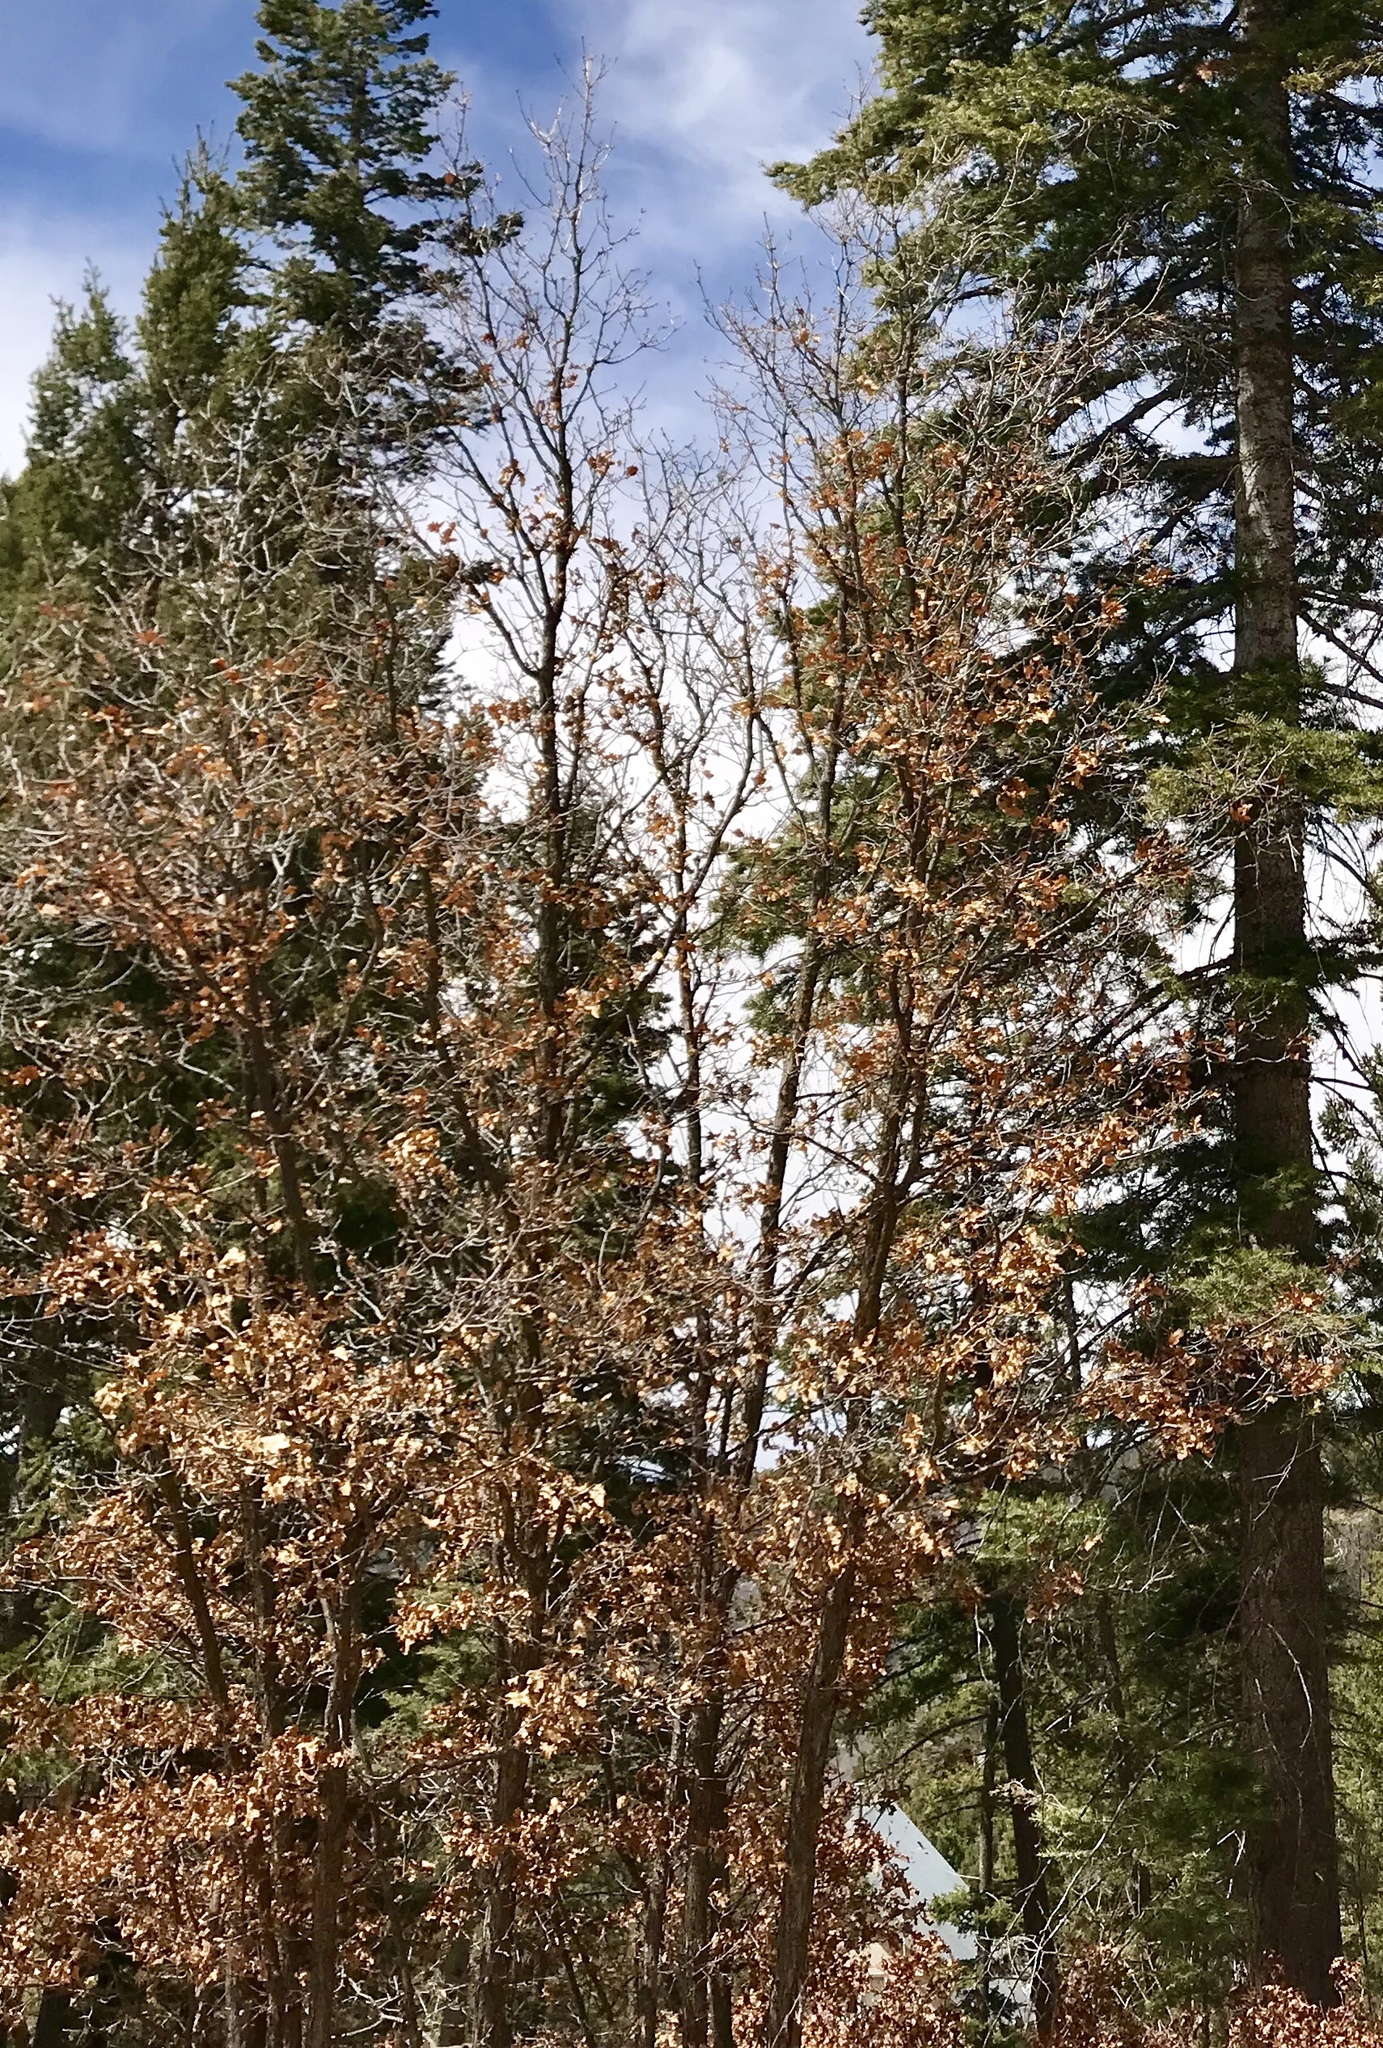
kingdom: Plantae
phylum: Tracheophyta
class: Magnoliopsida
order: Fagales
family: Fagaceae
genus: Quercus
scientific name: Quercus gambelii
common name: Gambel oak
